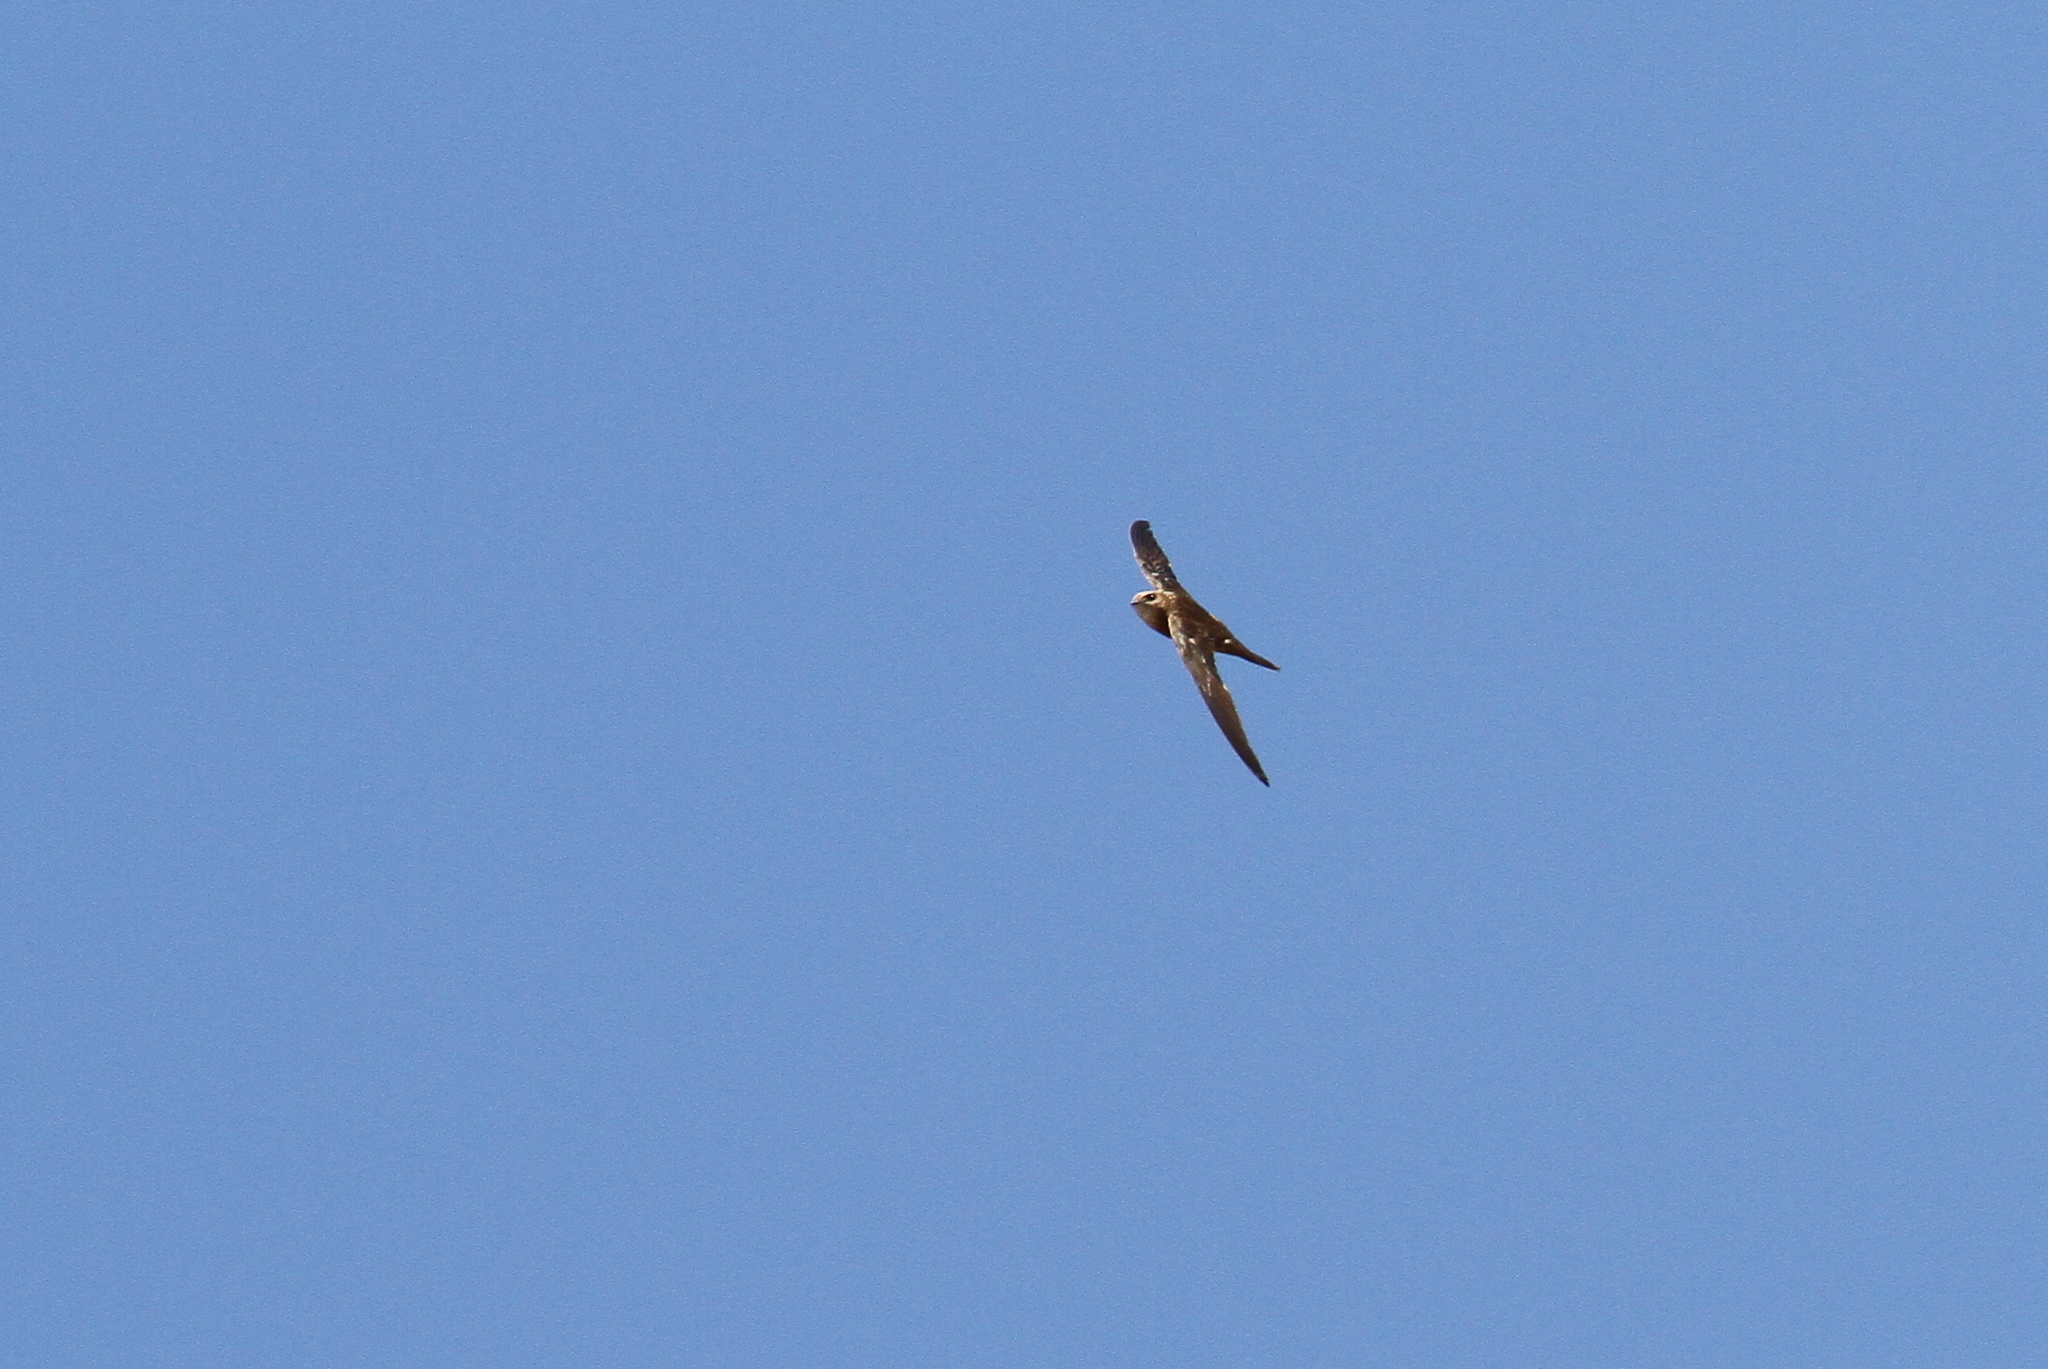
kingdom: Animalia
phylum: Chordata
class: Aves
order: Apodiformes
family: Apodidae
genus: Apus
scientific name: Apus berliozi
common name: Forbes-watson's swift
